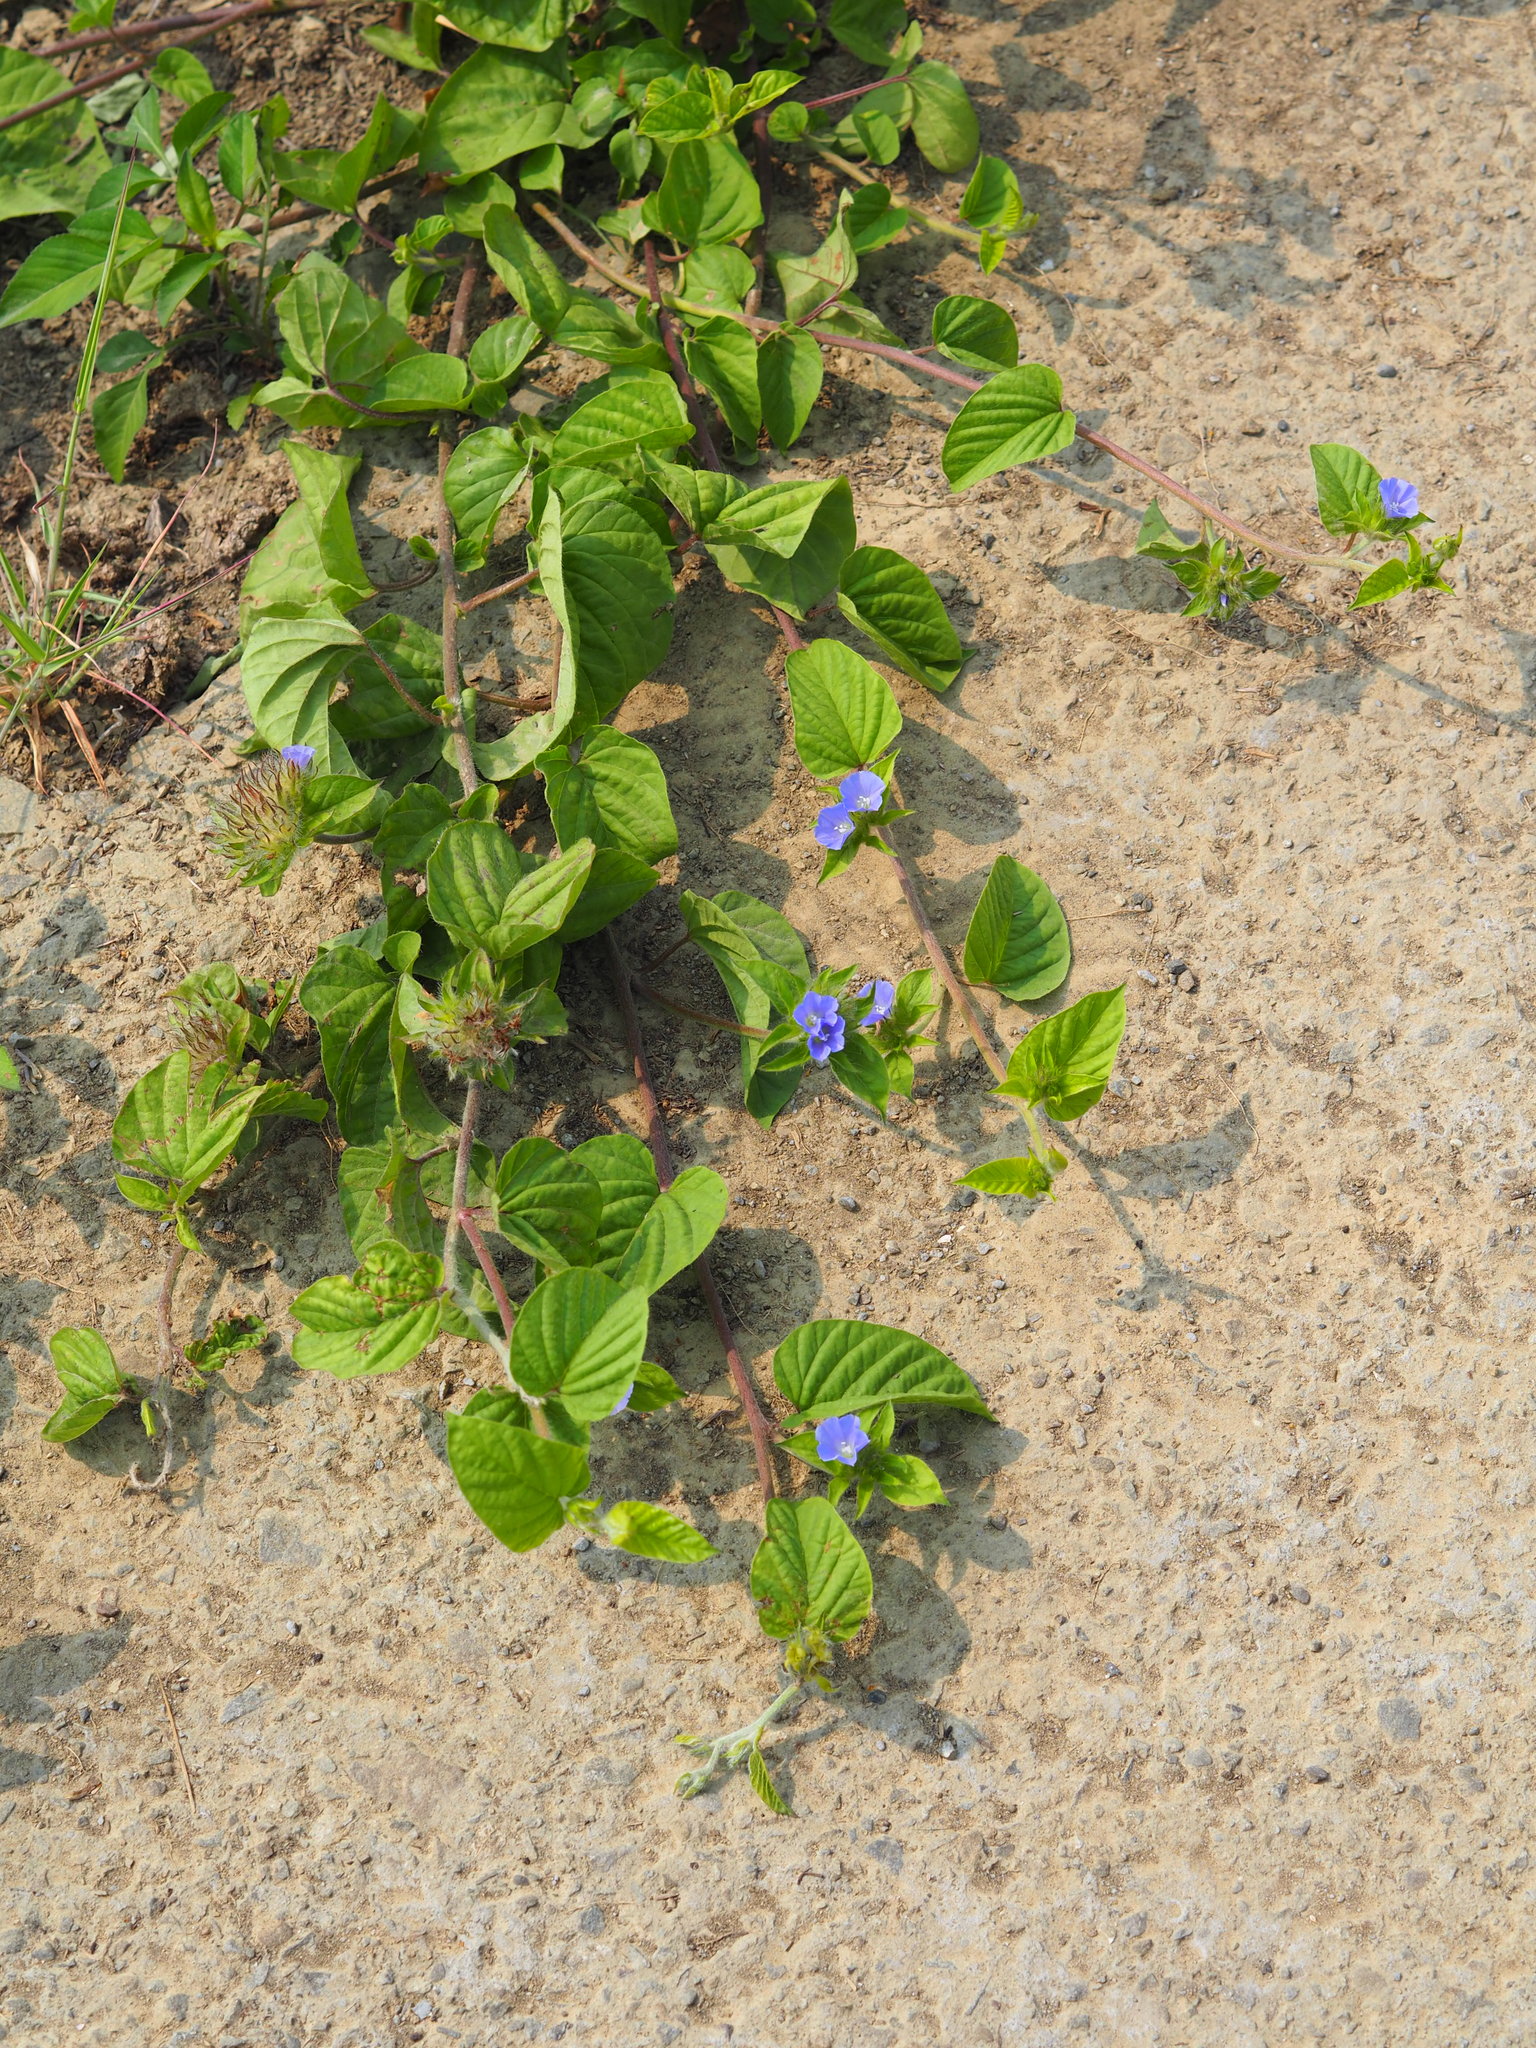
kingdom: Plantae
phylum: Tracheophyta
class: Magnoliopsida
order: Solanales
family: Convolvulaceae
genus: Jacquemontia
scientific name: Jacquemontia tamnifolia
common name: Hairy clustervine
